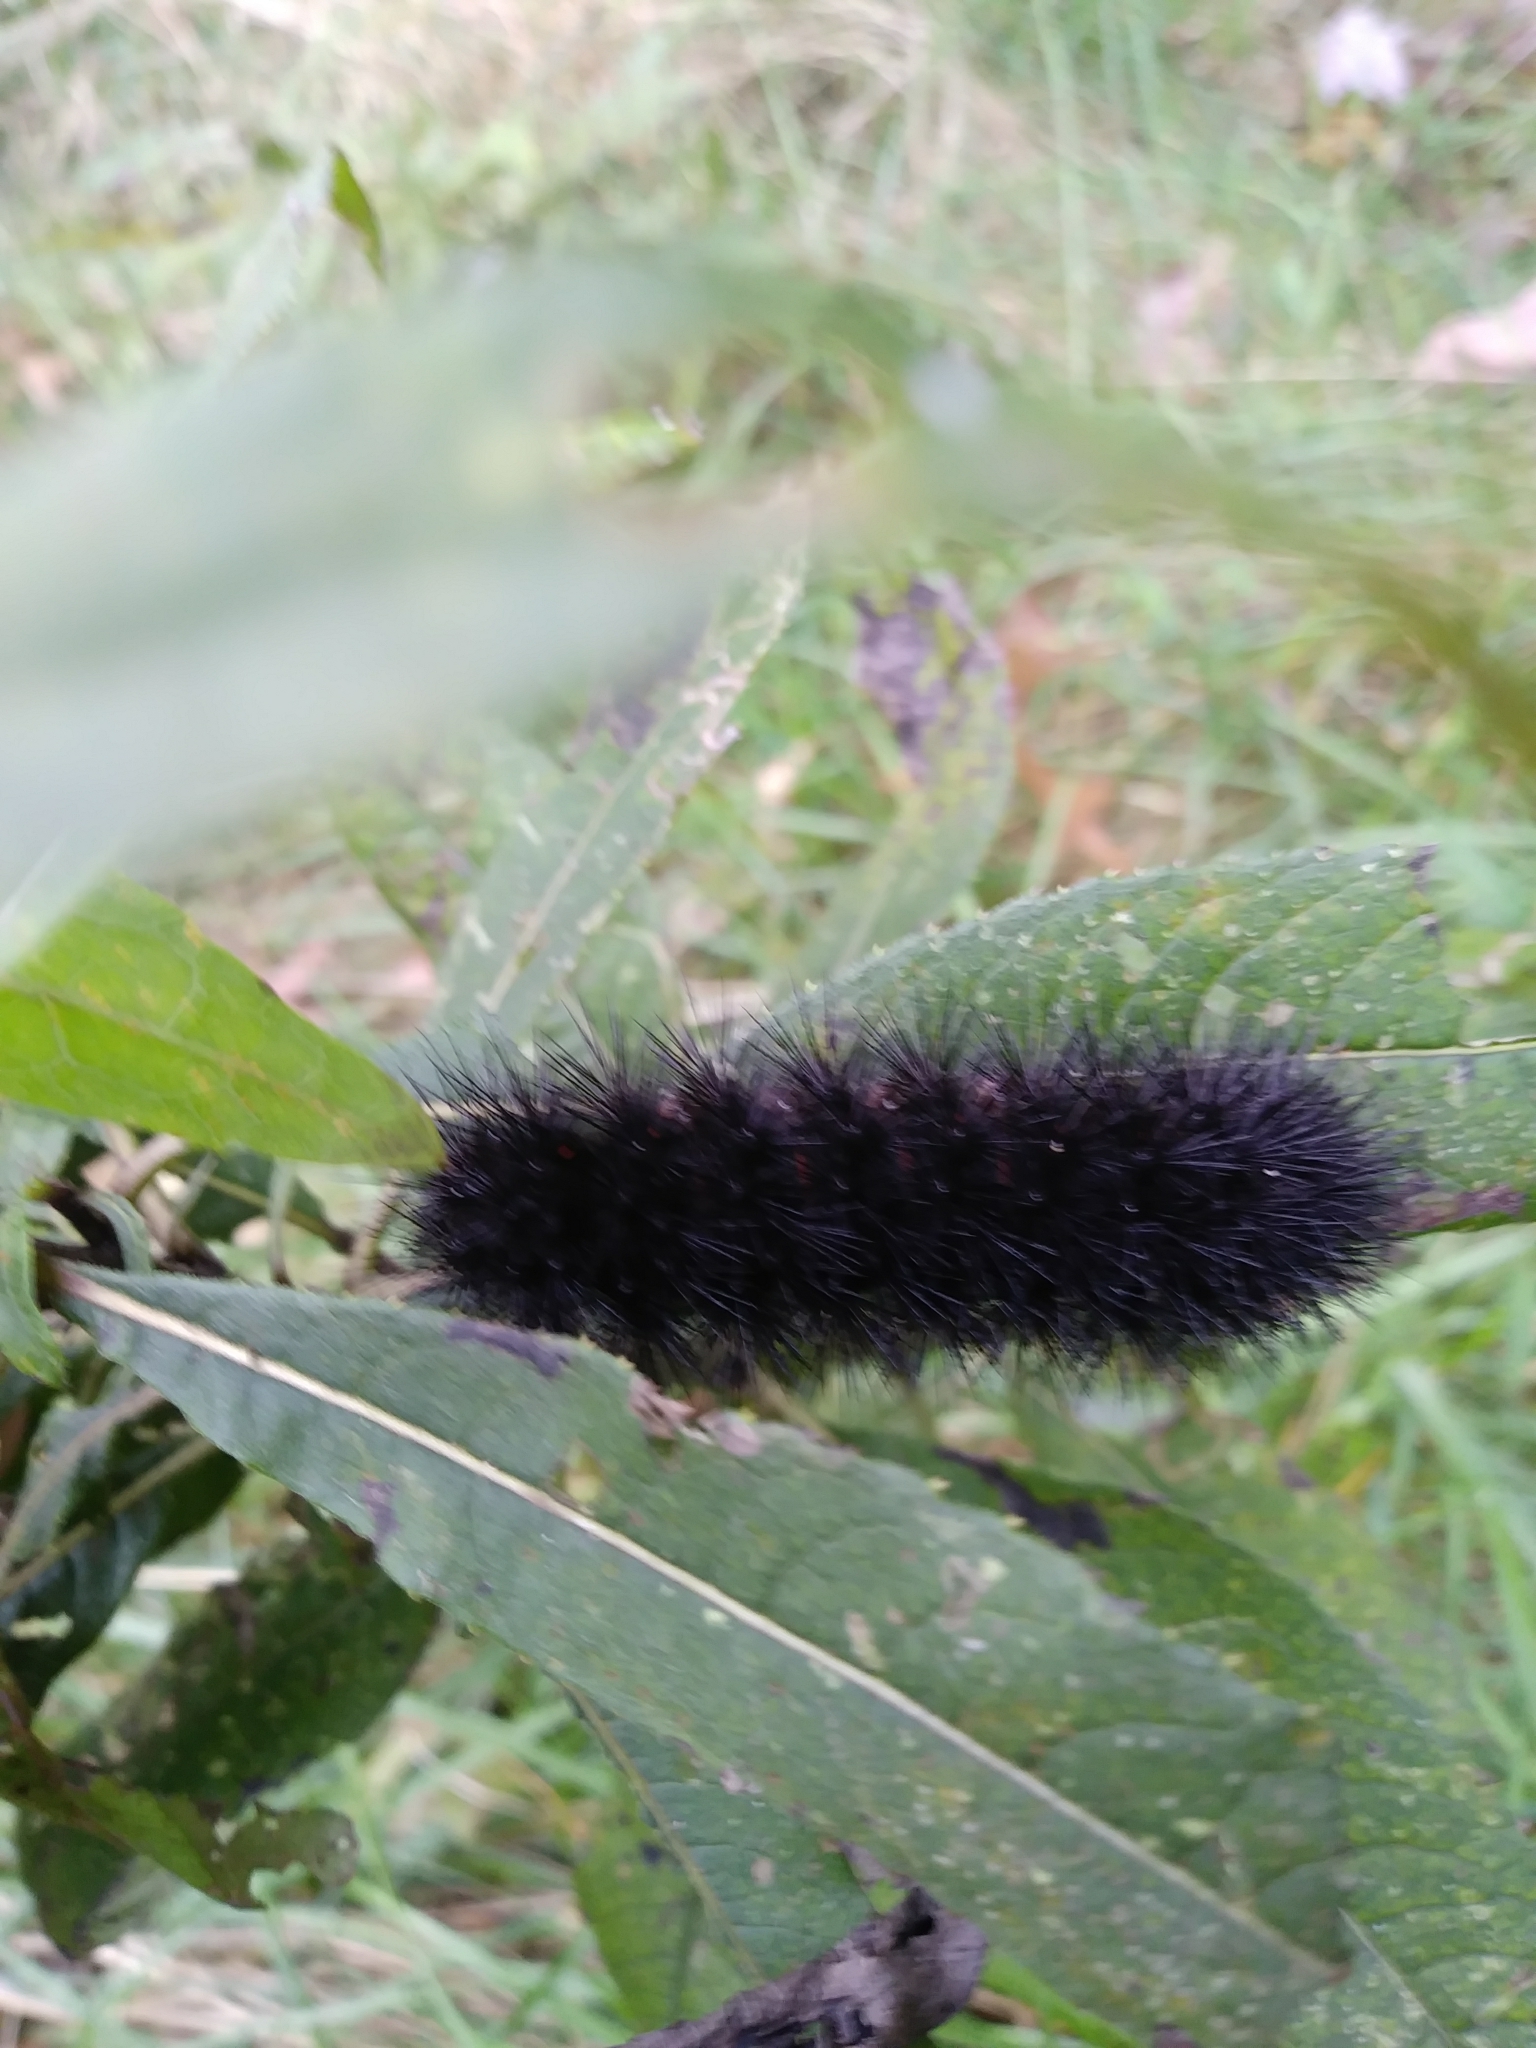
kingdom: Animalia
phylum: Arthropoda
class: Insecta
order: Lepidoptera
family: Erebidae
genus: Hypercompe
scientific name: Hypercompe scribonia
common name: Giant leopard moth
